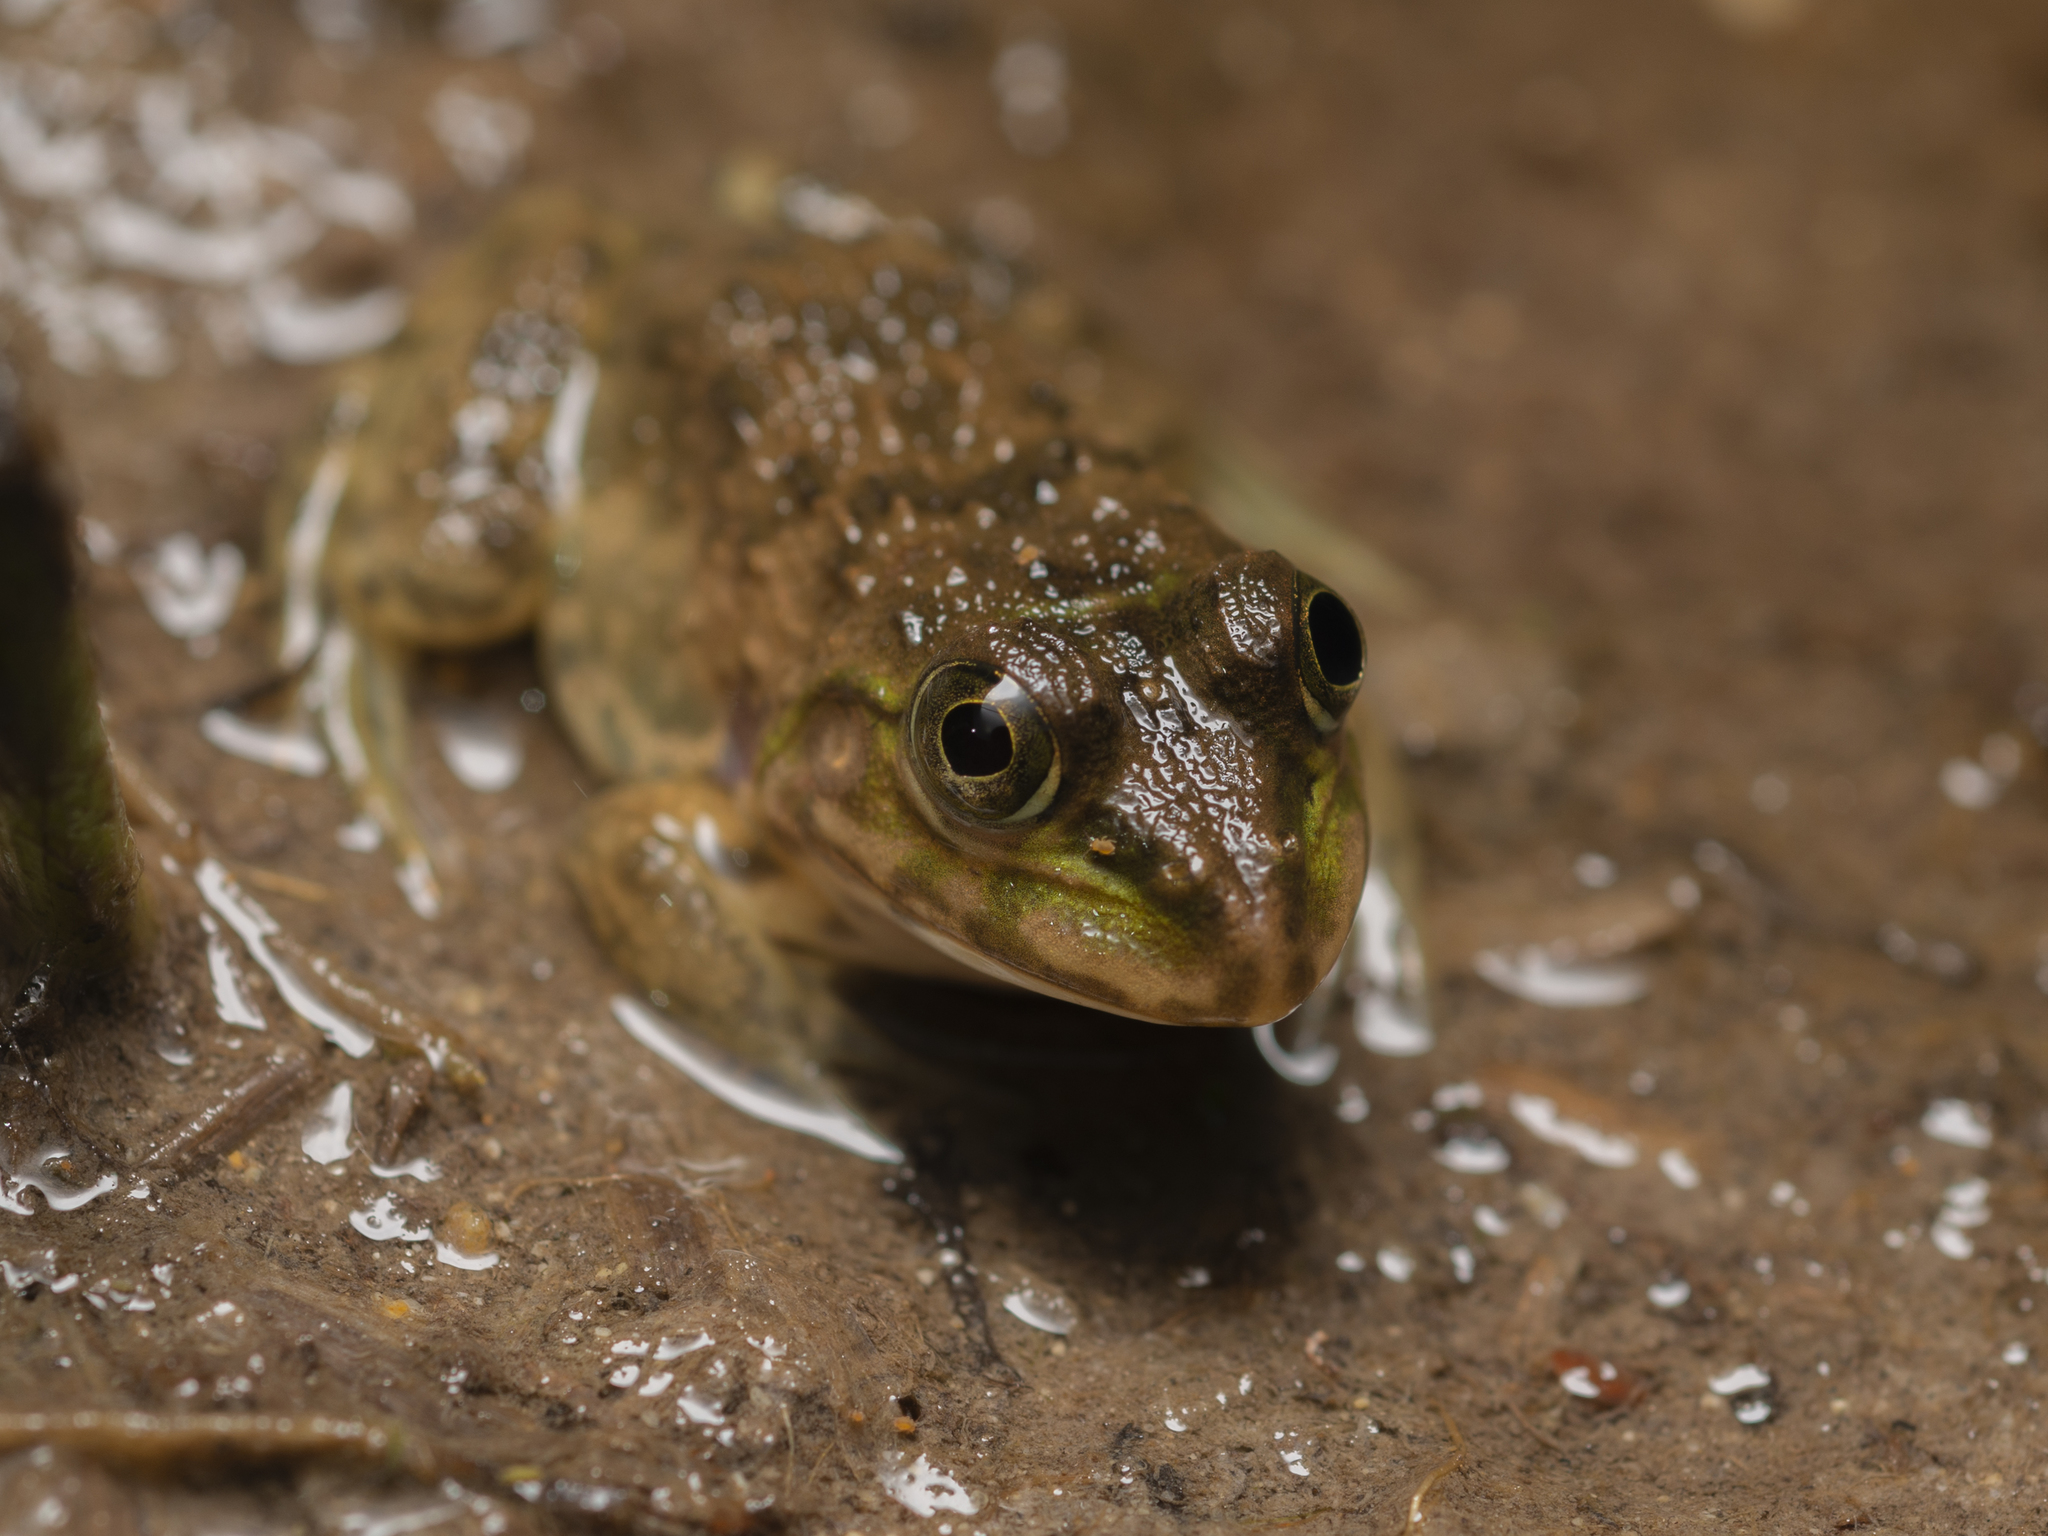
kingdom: Animalia
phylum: Chordata
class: Amphibia
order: Anura
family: Dicroglossidae
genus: Hoplobatrachus
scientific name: Hoplobatrachus rugulosus
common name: Chinese edible frog
